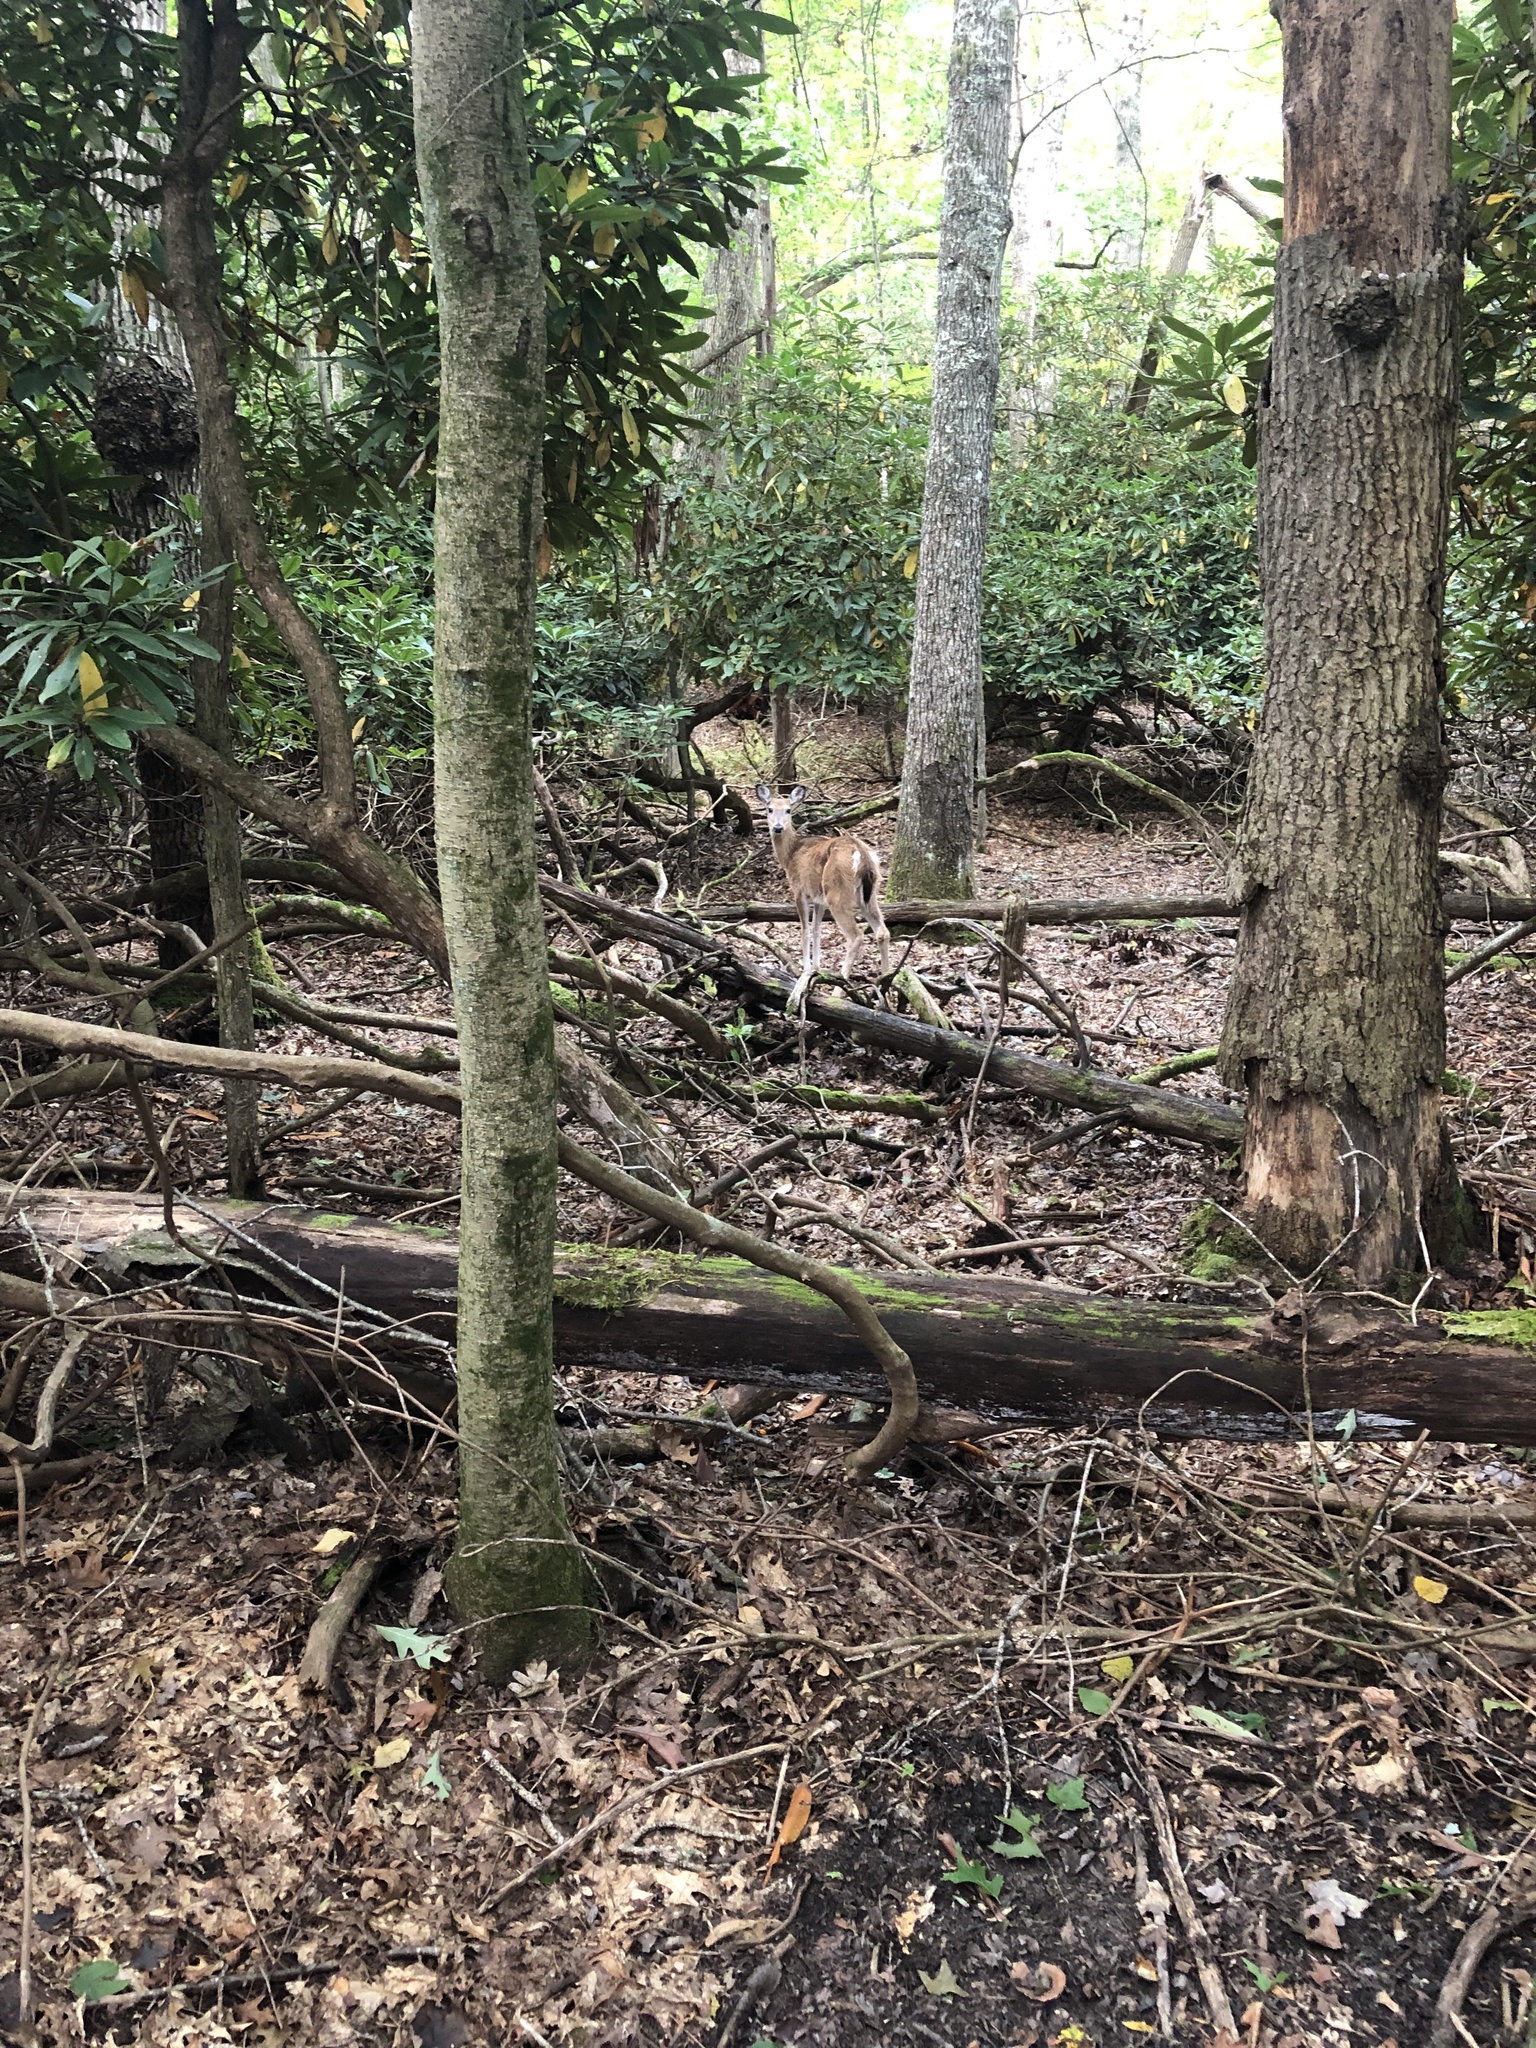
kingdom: Animalia
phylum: Chordata
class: Mammalia
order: Artiodactyla
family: Cervidae
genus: Odocoileus
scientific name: Odocoileus virginianus
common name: White-tailed deer
